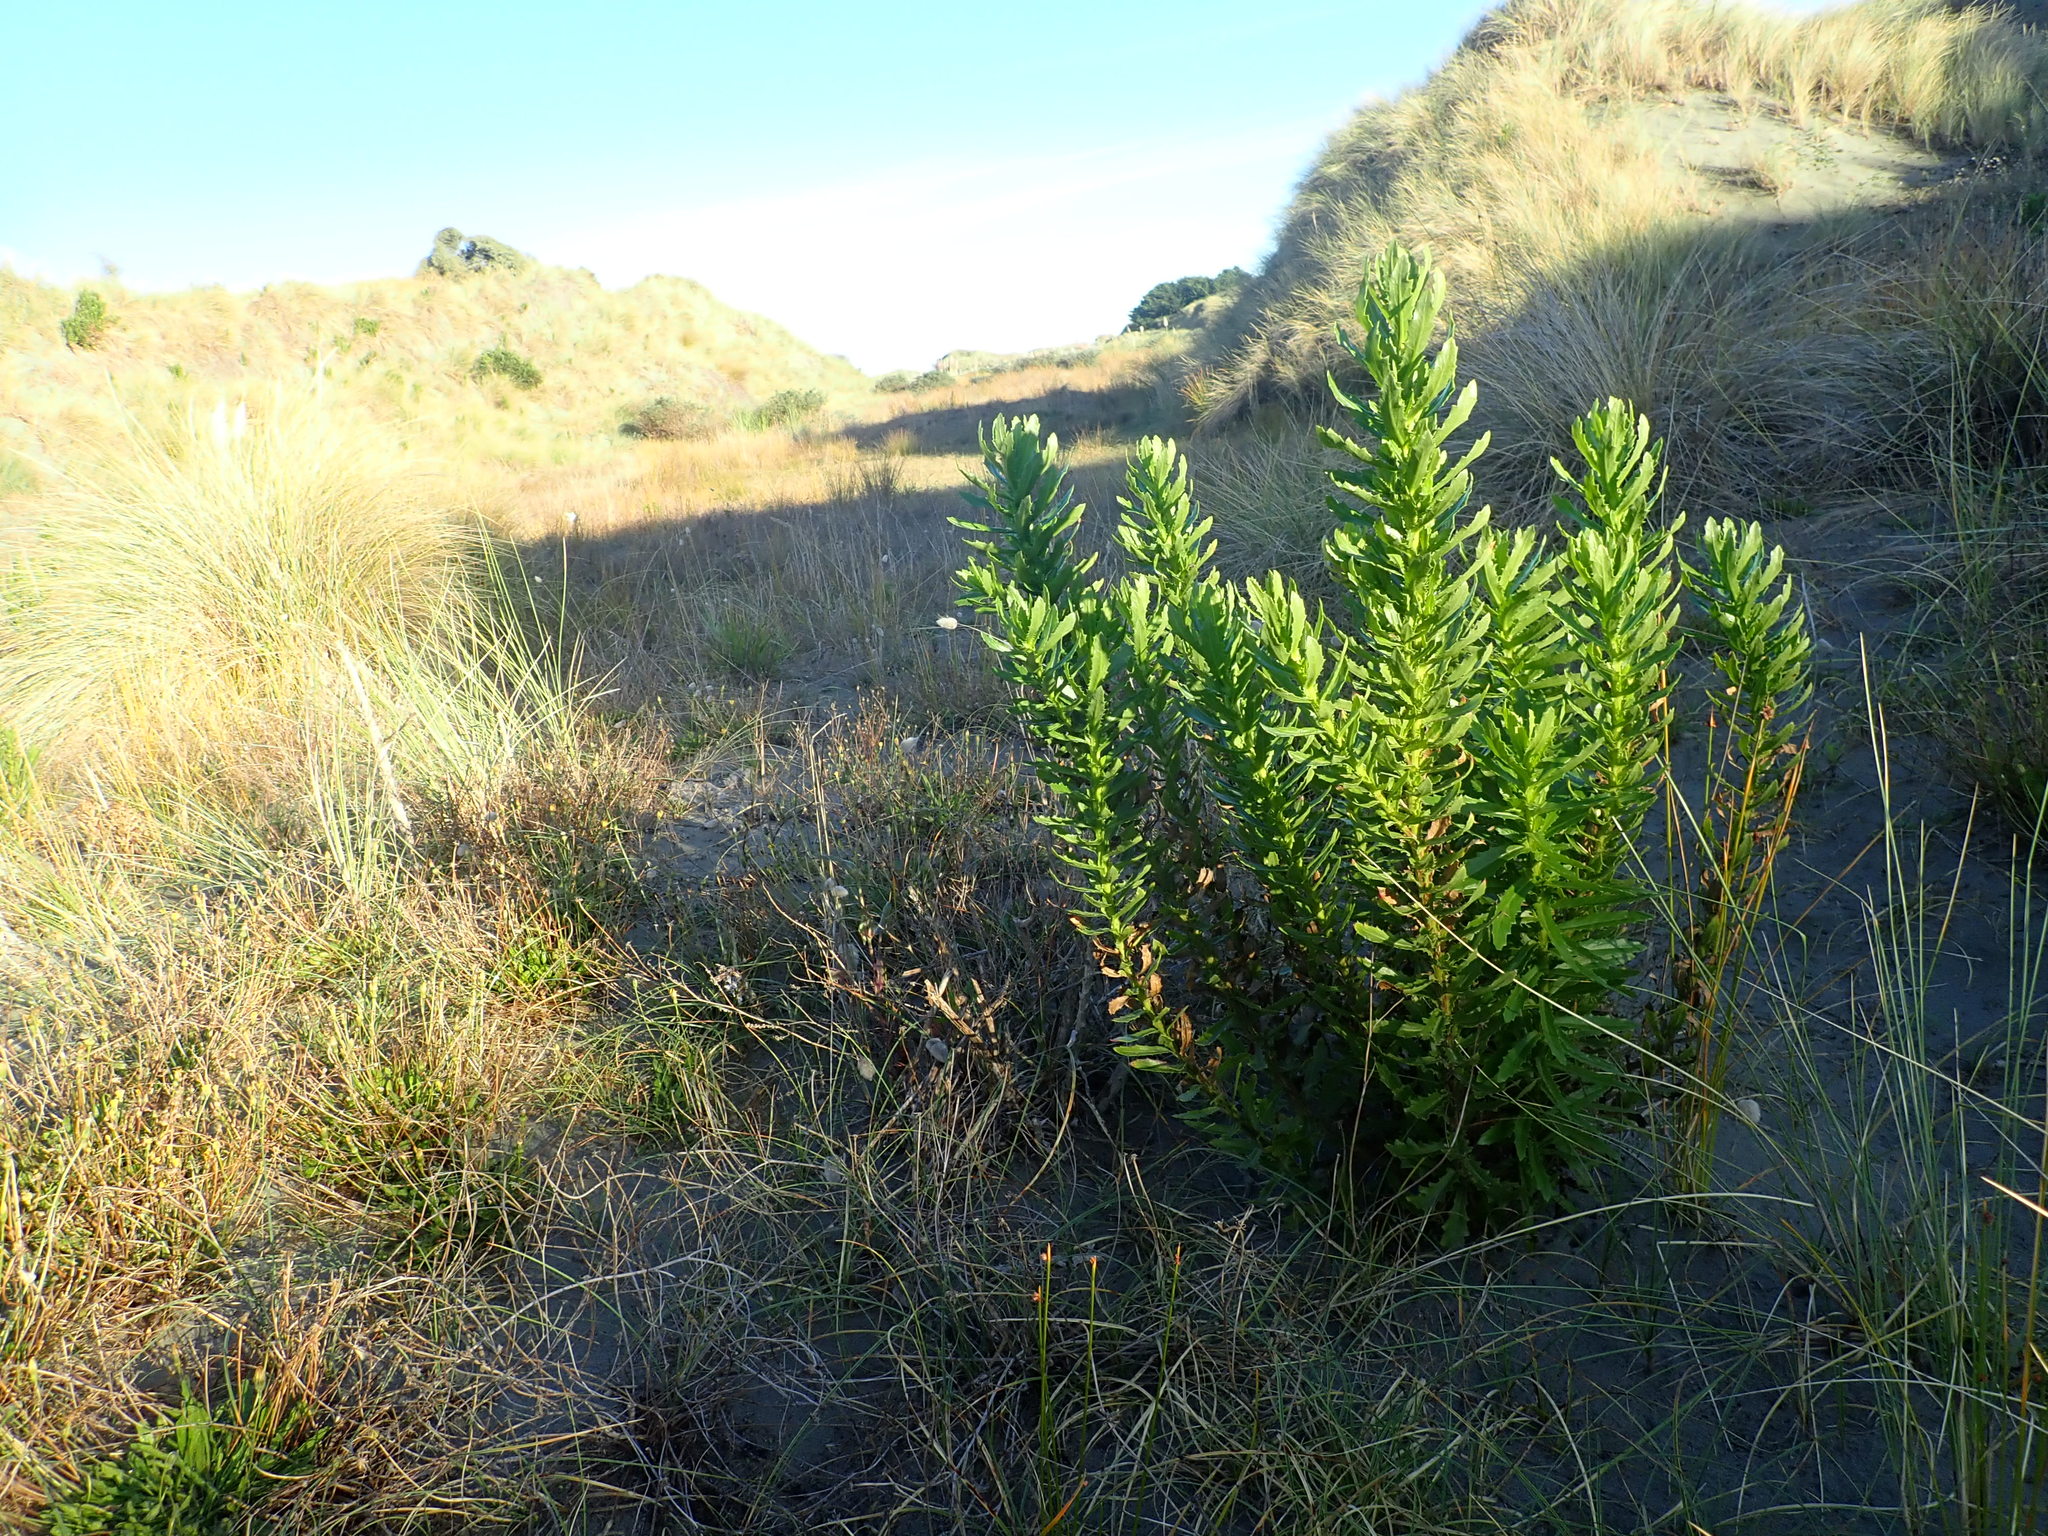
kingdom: Plantae
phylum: Tracheophyta
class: Magnoliopsida
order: Asterales
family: Asteraceae
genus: Senecio
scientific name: Senecio glastifolius
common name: Woad-leaved ragwort
